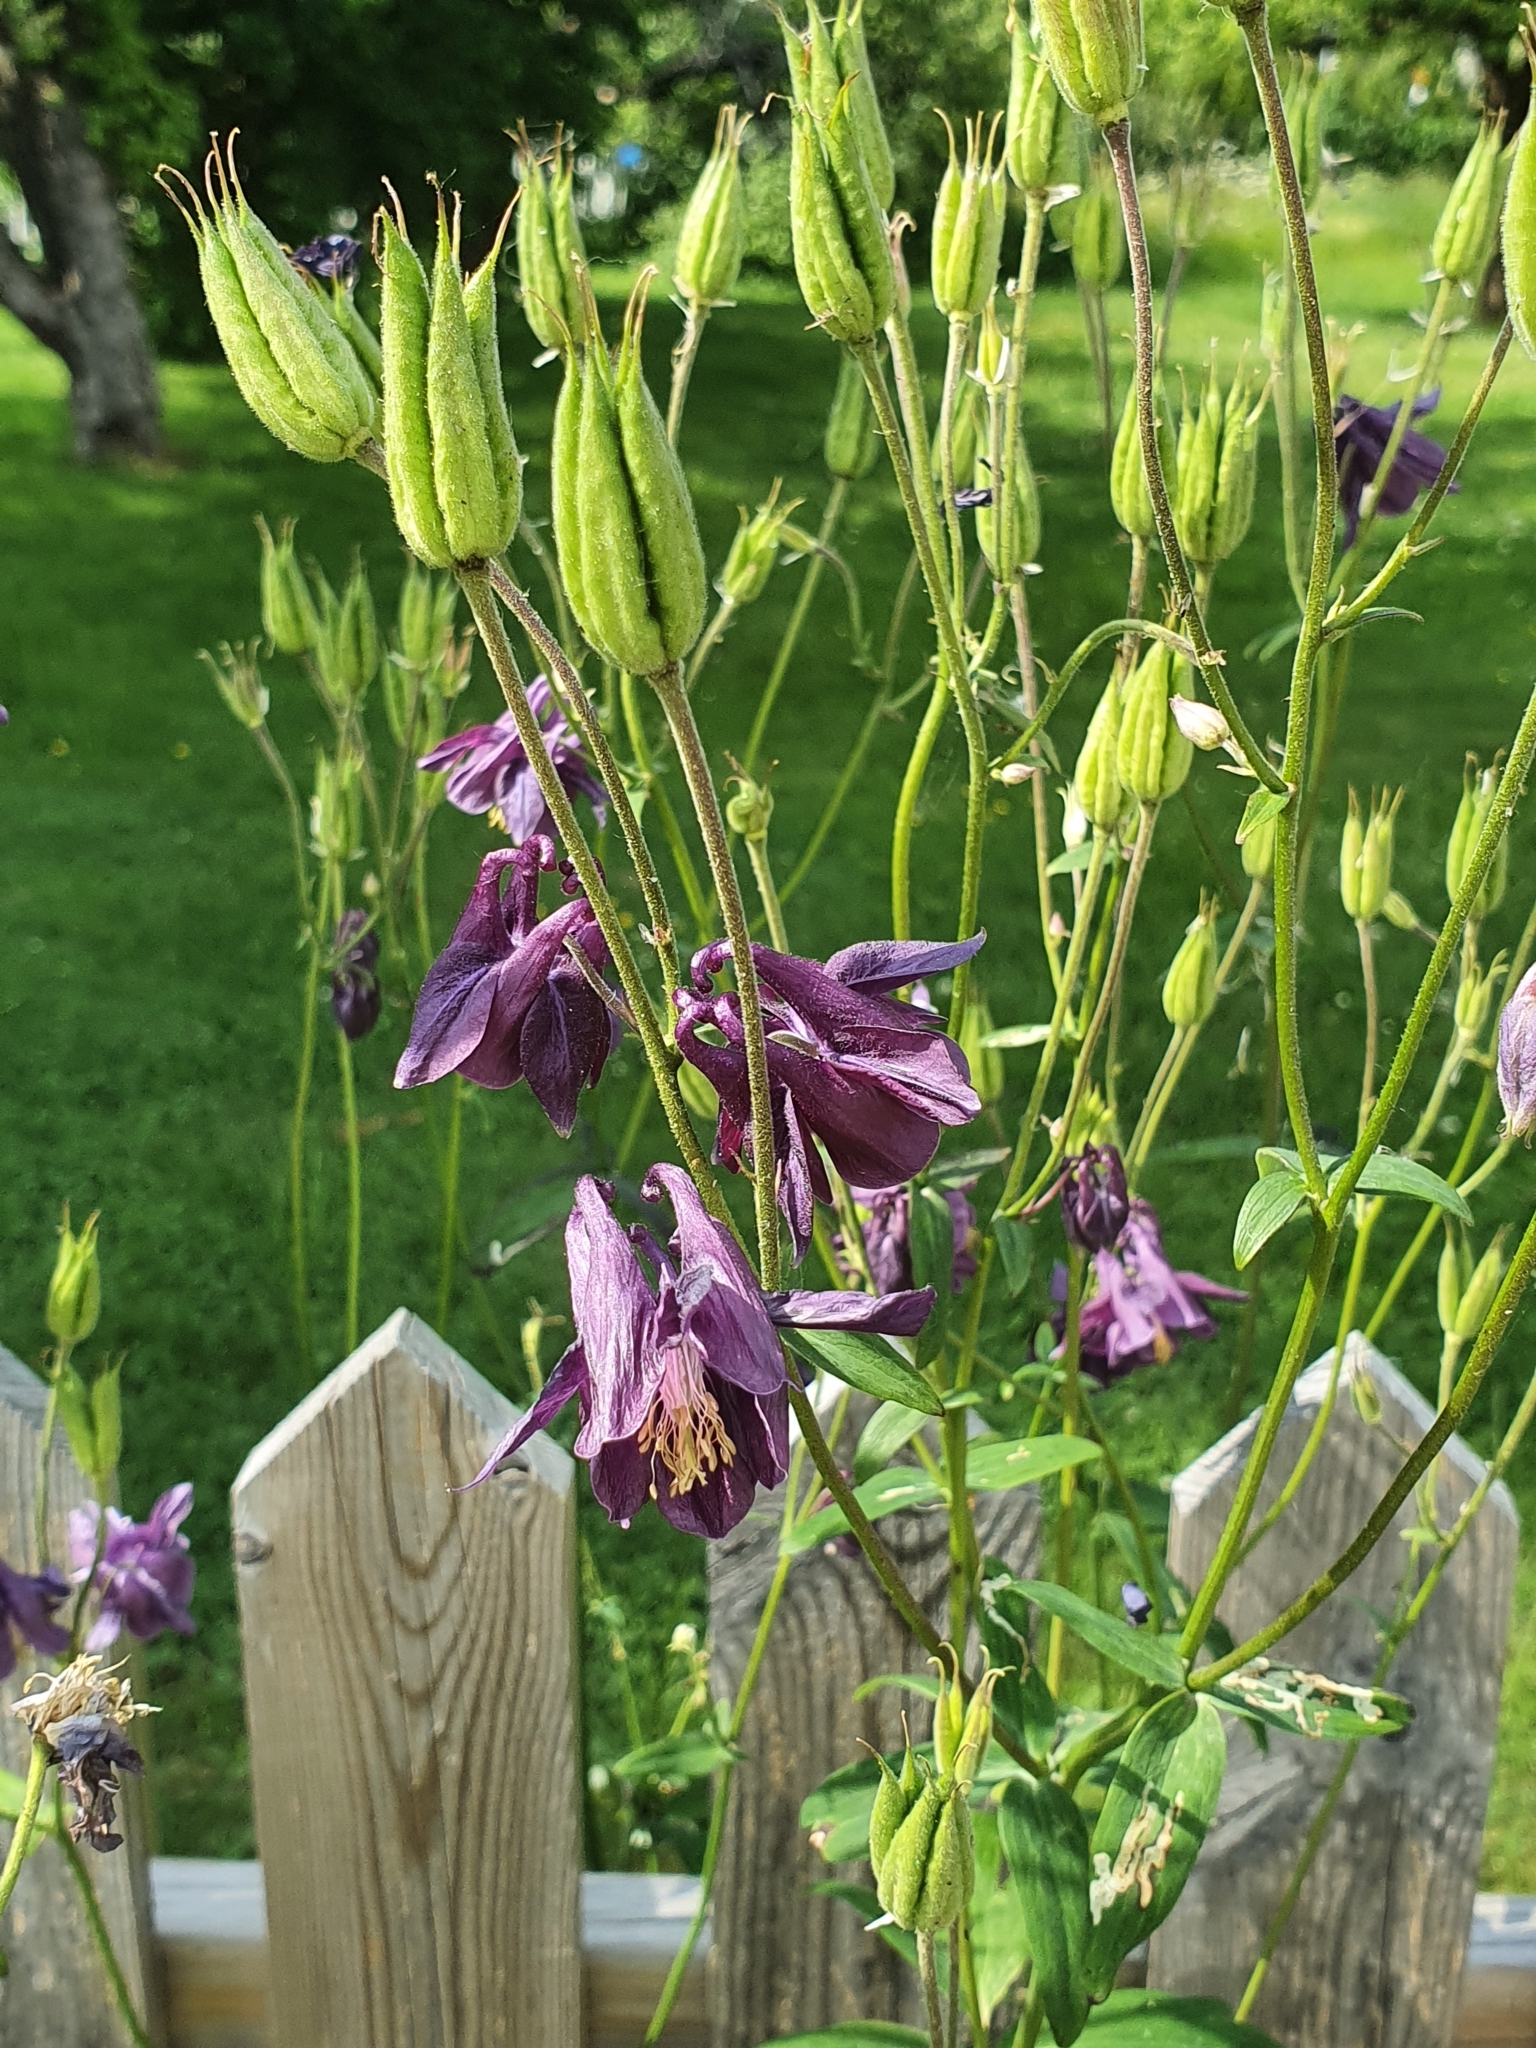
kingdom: Plantae
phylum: Tracheophyta
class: Magnoliopsida
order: Ranunculales
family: Ranunculaceae
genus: Aquilegia
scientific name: Aquilegia vulgaris
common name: Columbine
